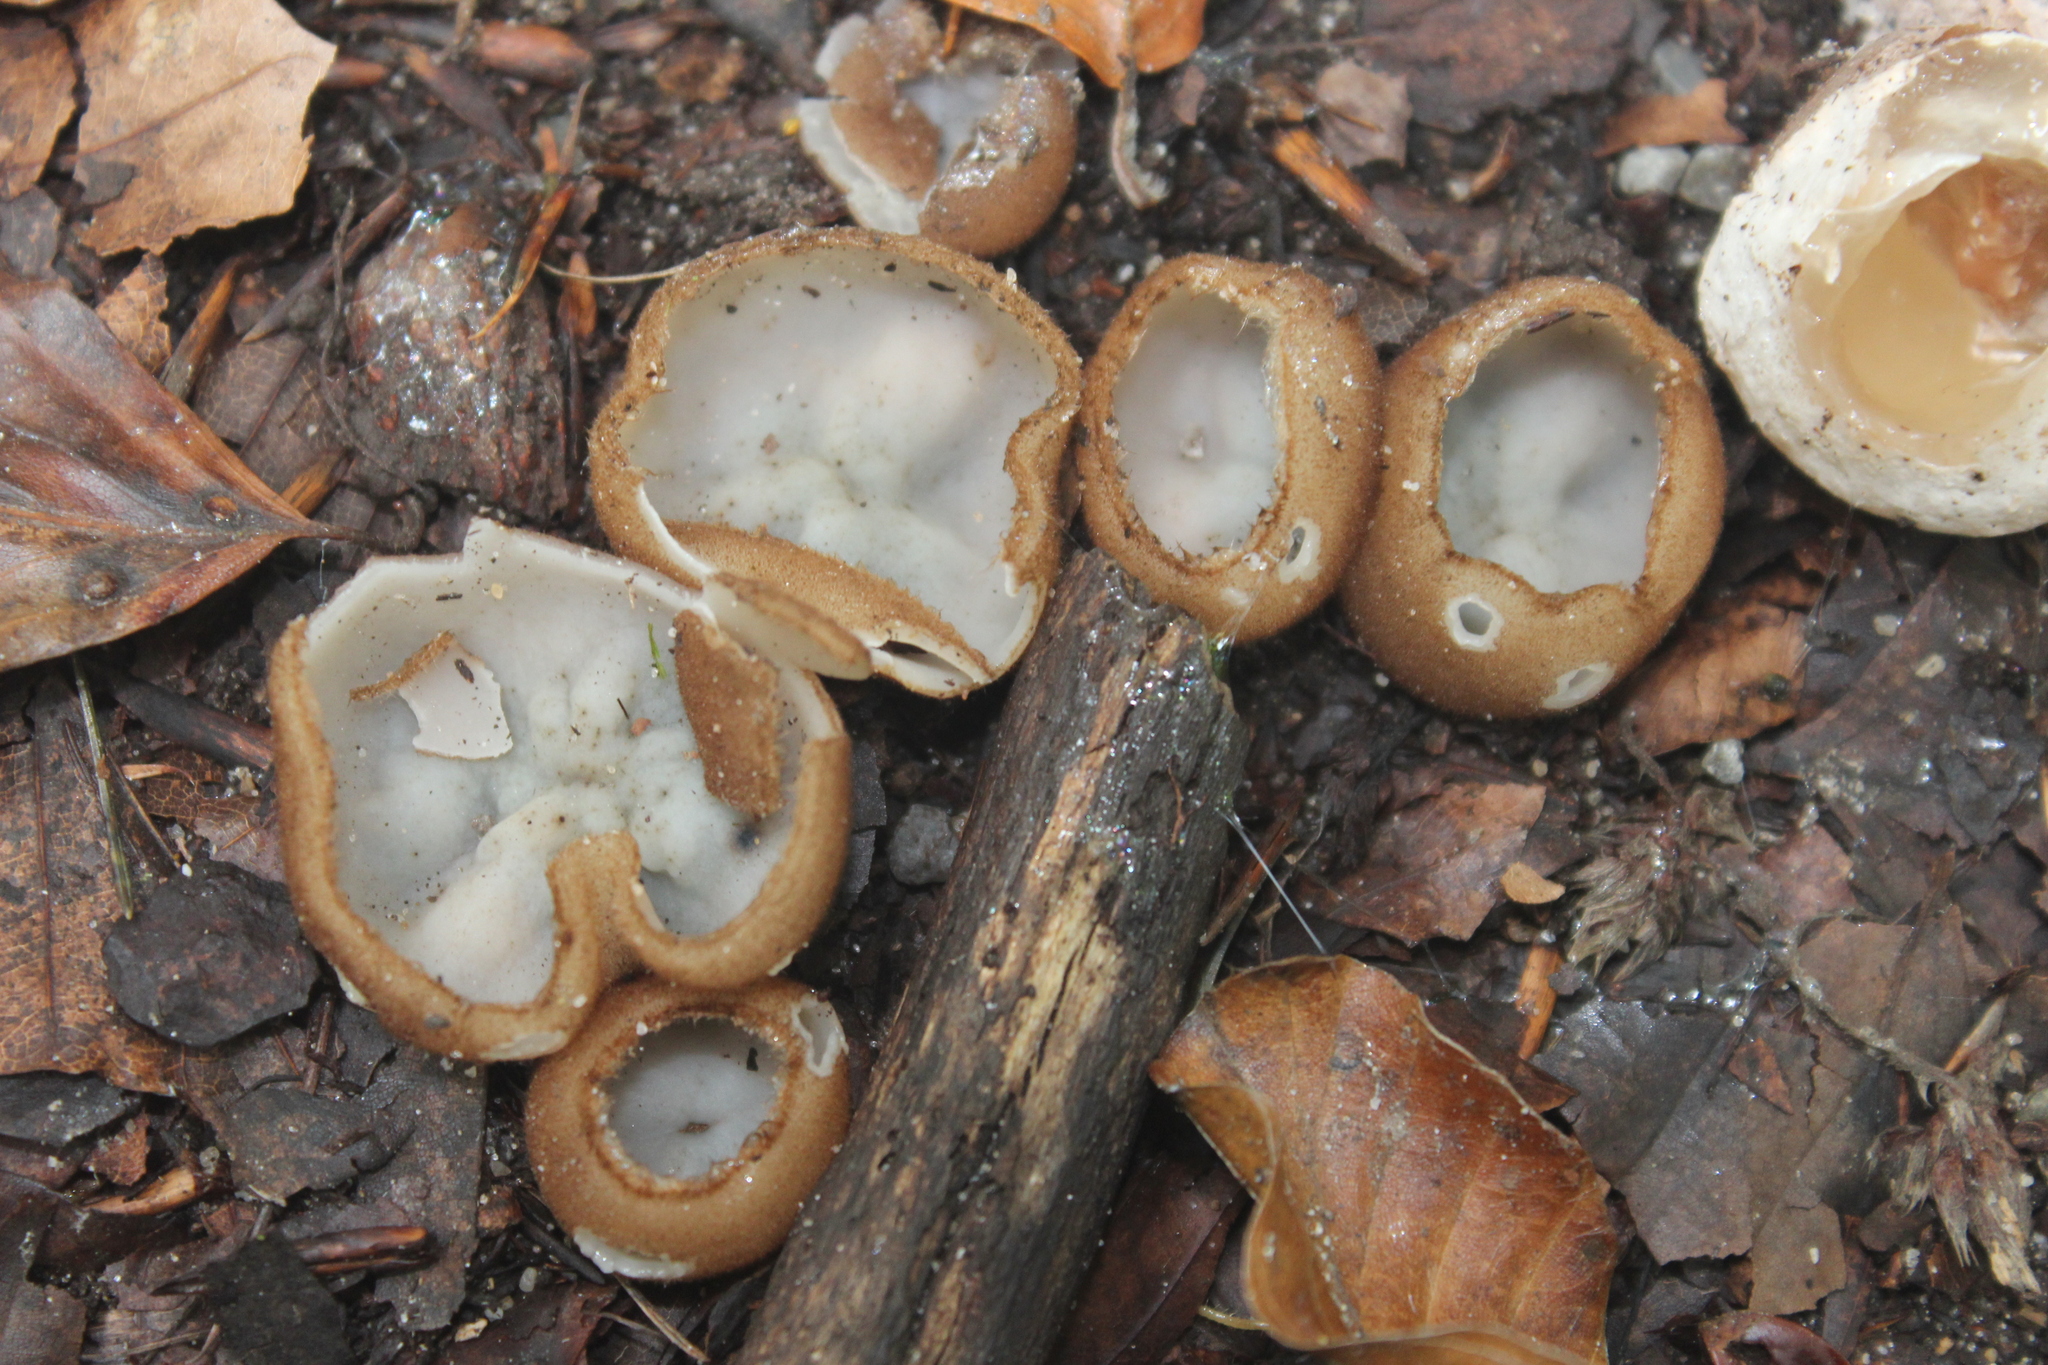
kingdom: Fungi
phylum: Ascomycota
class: Pezizomycetes
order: Pezizales
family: Pyronemataceae
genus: Humaria
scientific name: Humaria hemisphaerica
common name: Glazed cup
